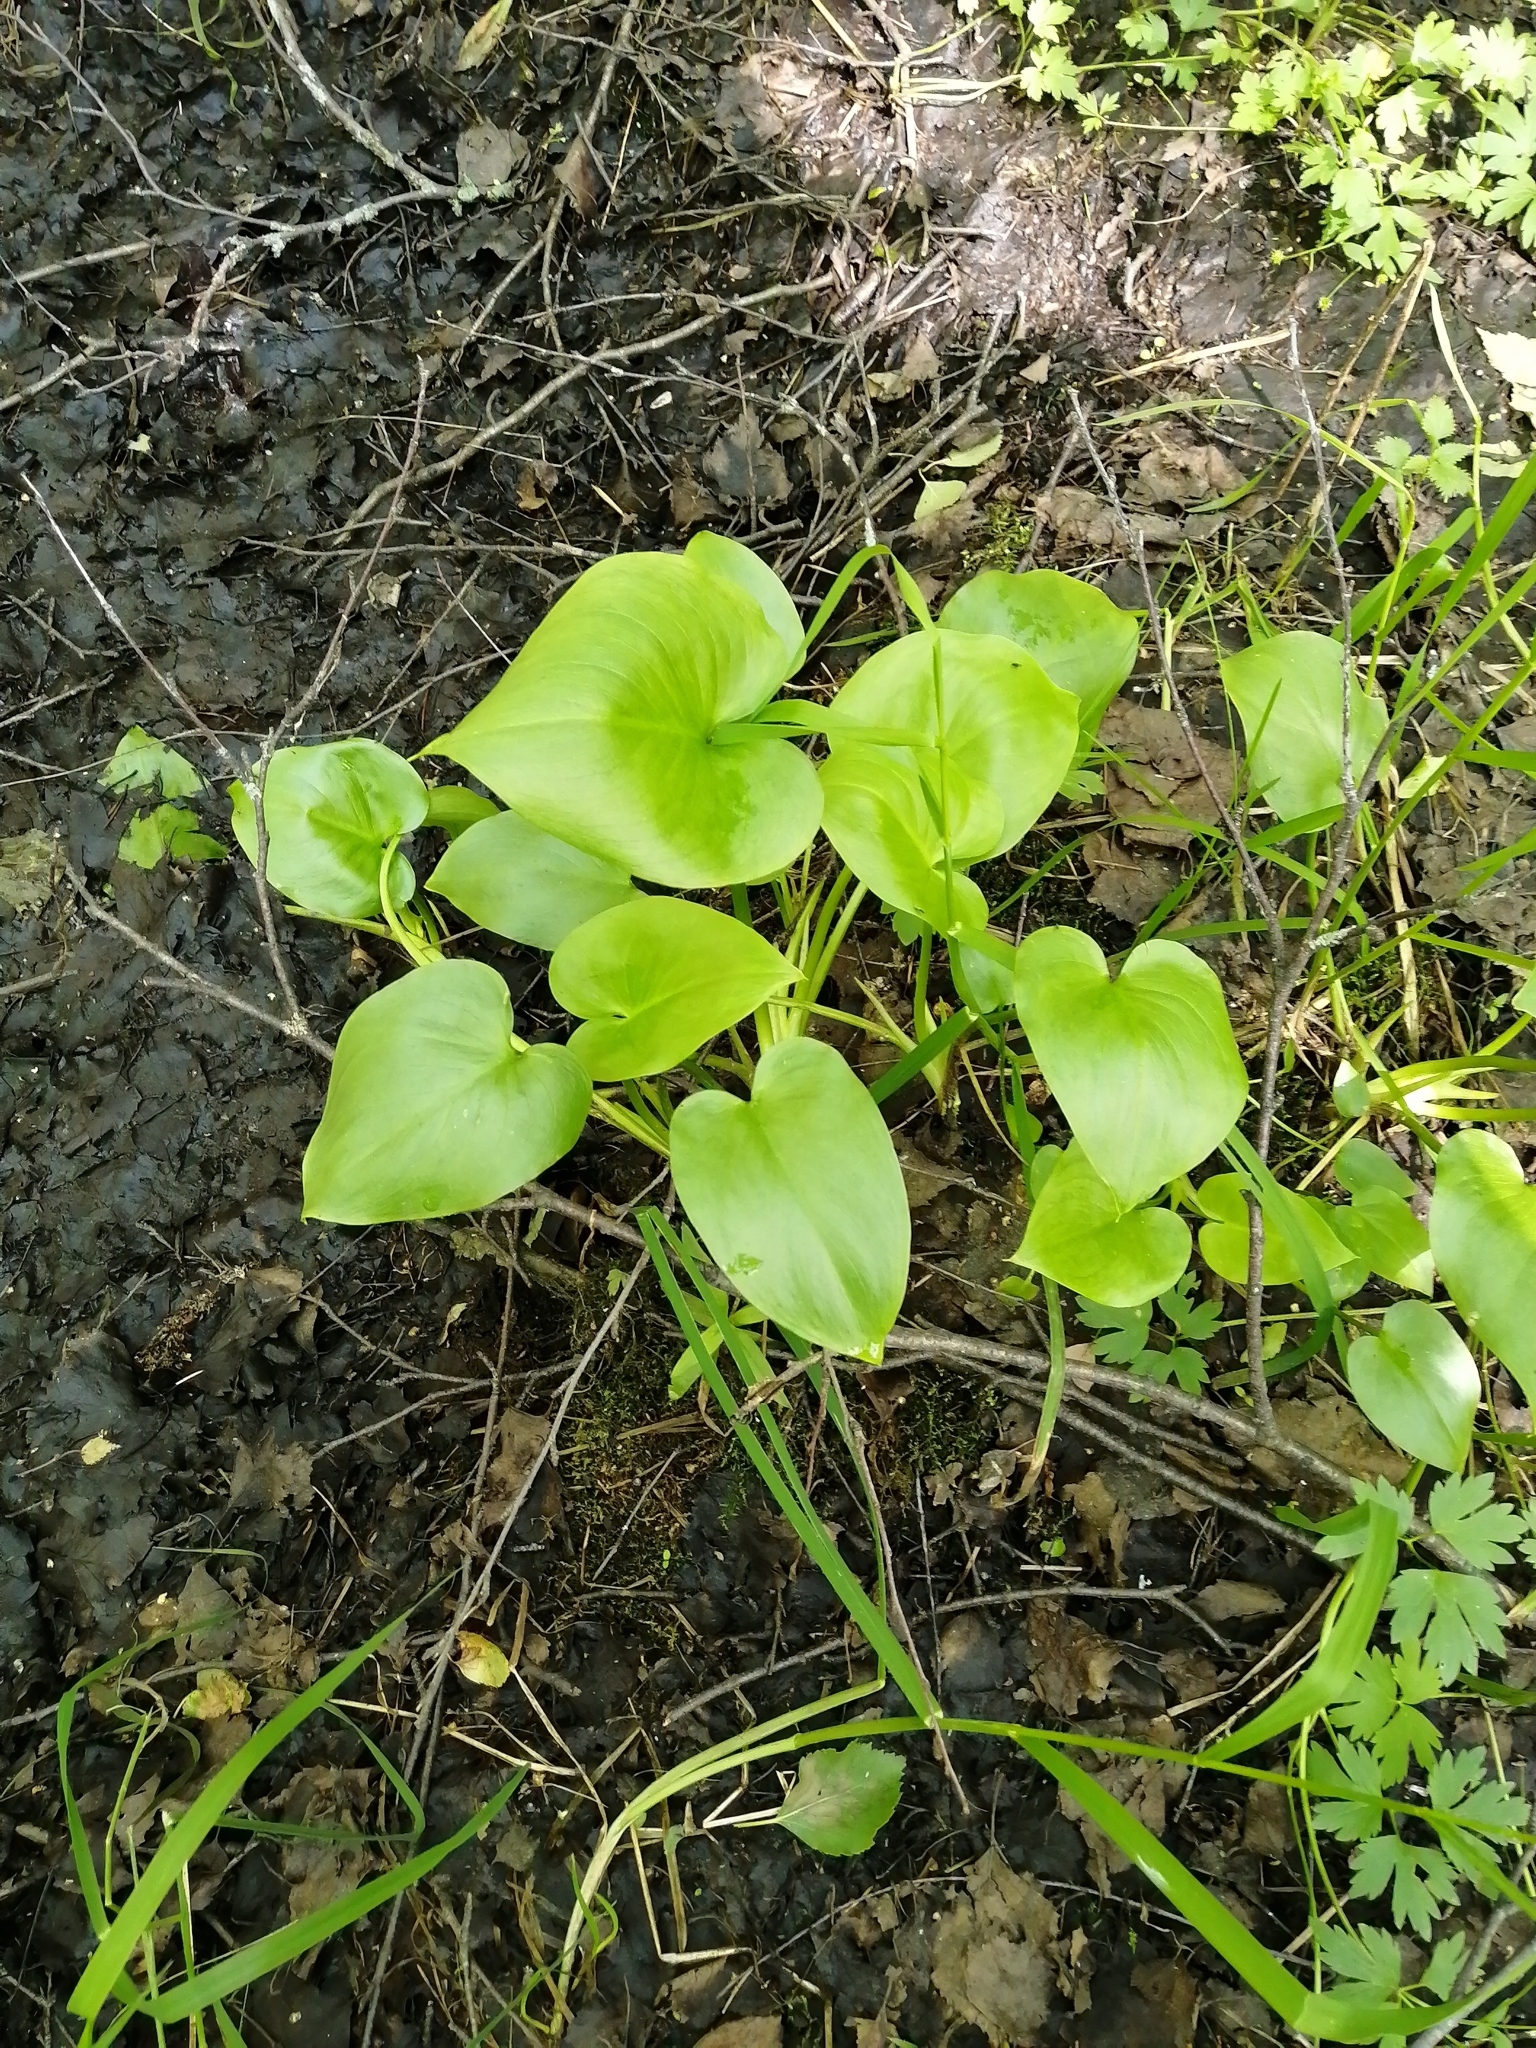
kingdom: Plantae
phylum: Tracheophyta
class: Liliopsida
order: Alismatales
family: Araceae
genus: Calla
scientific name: Calla palustris
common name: Bog arum
